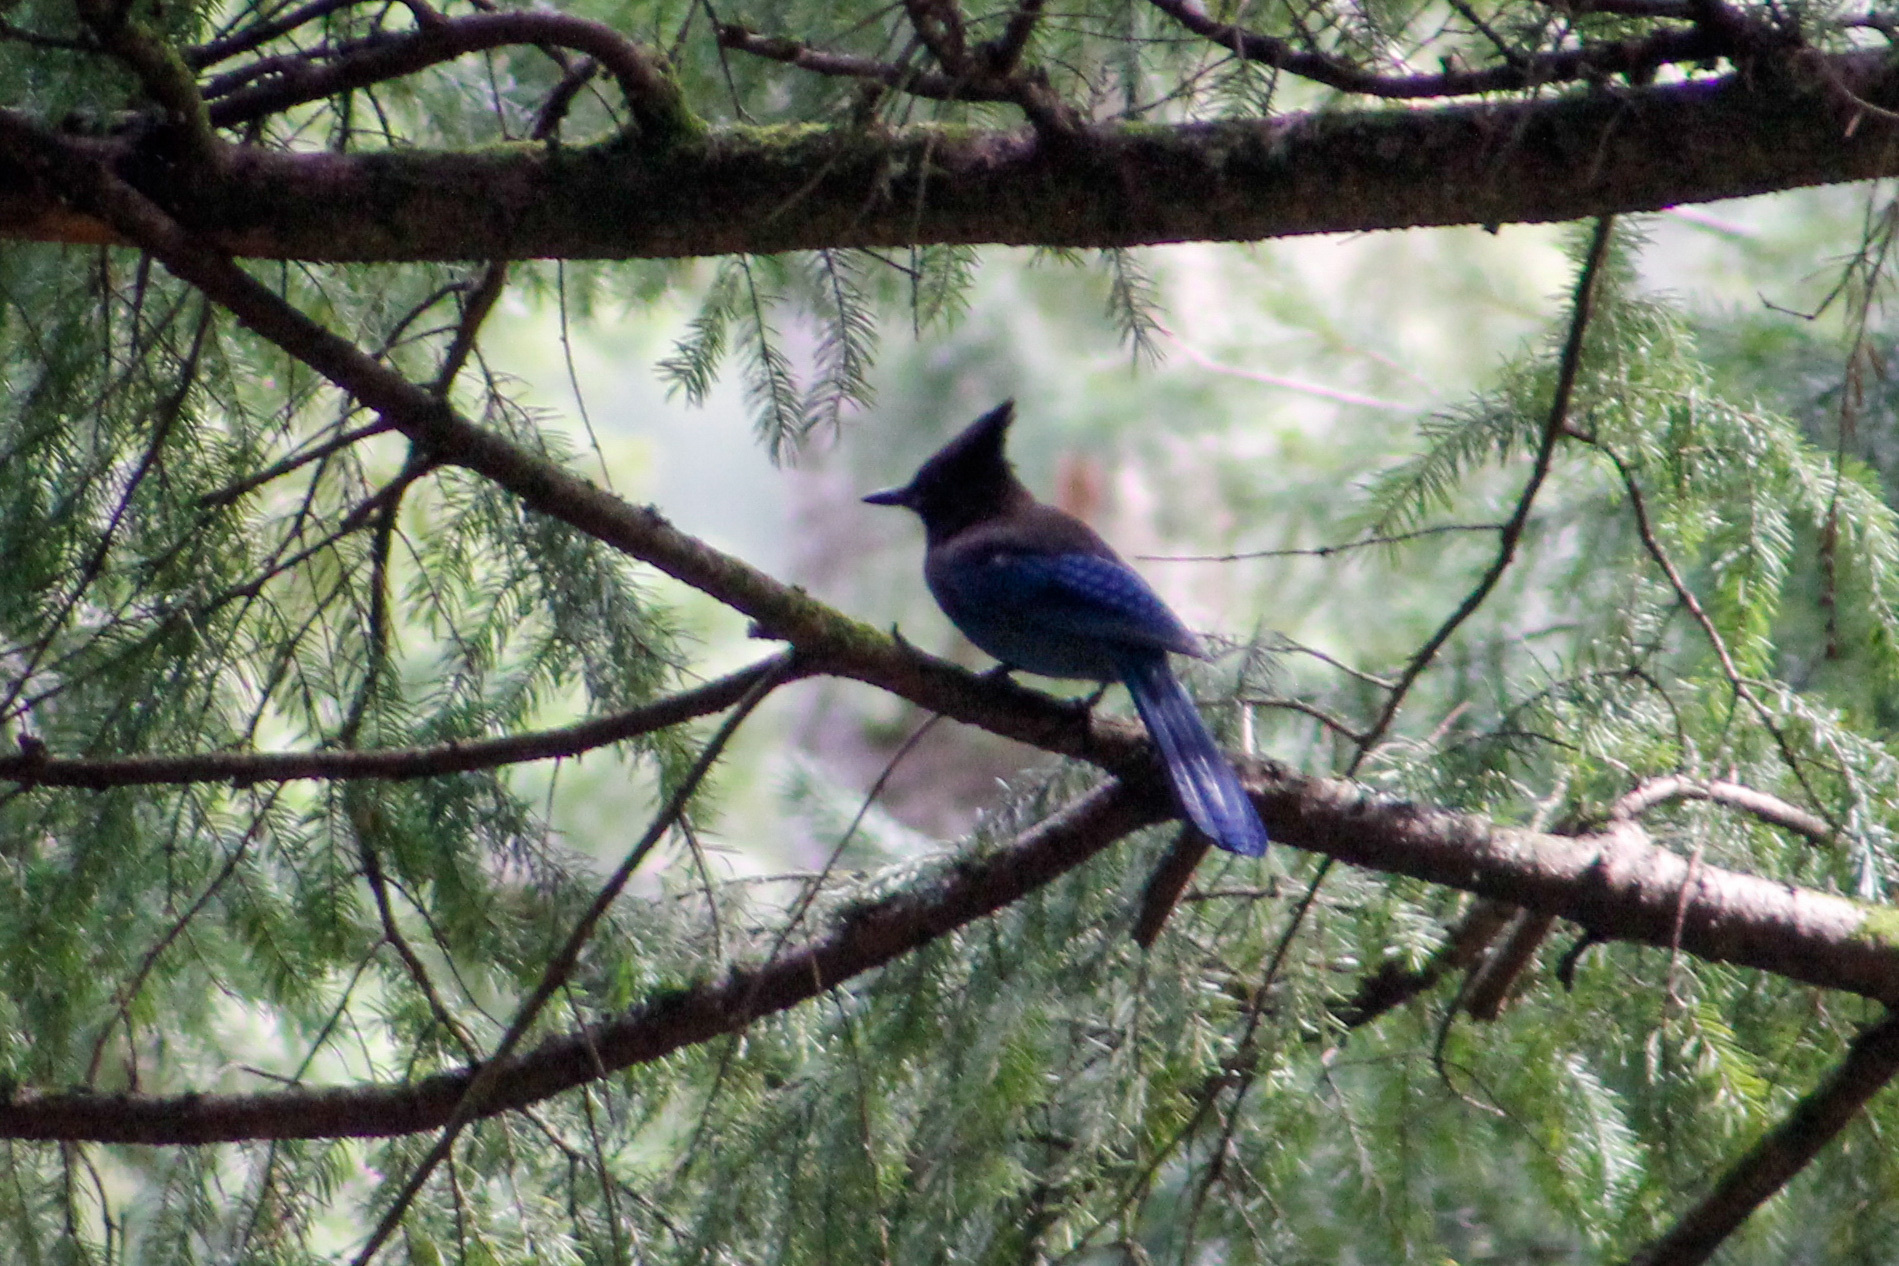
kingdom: Animalia
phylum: Chordata
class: Aves
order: Passeriformes
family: Corvidae
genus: Cyanocitta
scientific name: Cyanocitta stelleri
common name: Steller's jay
